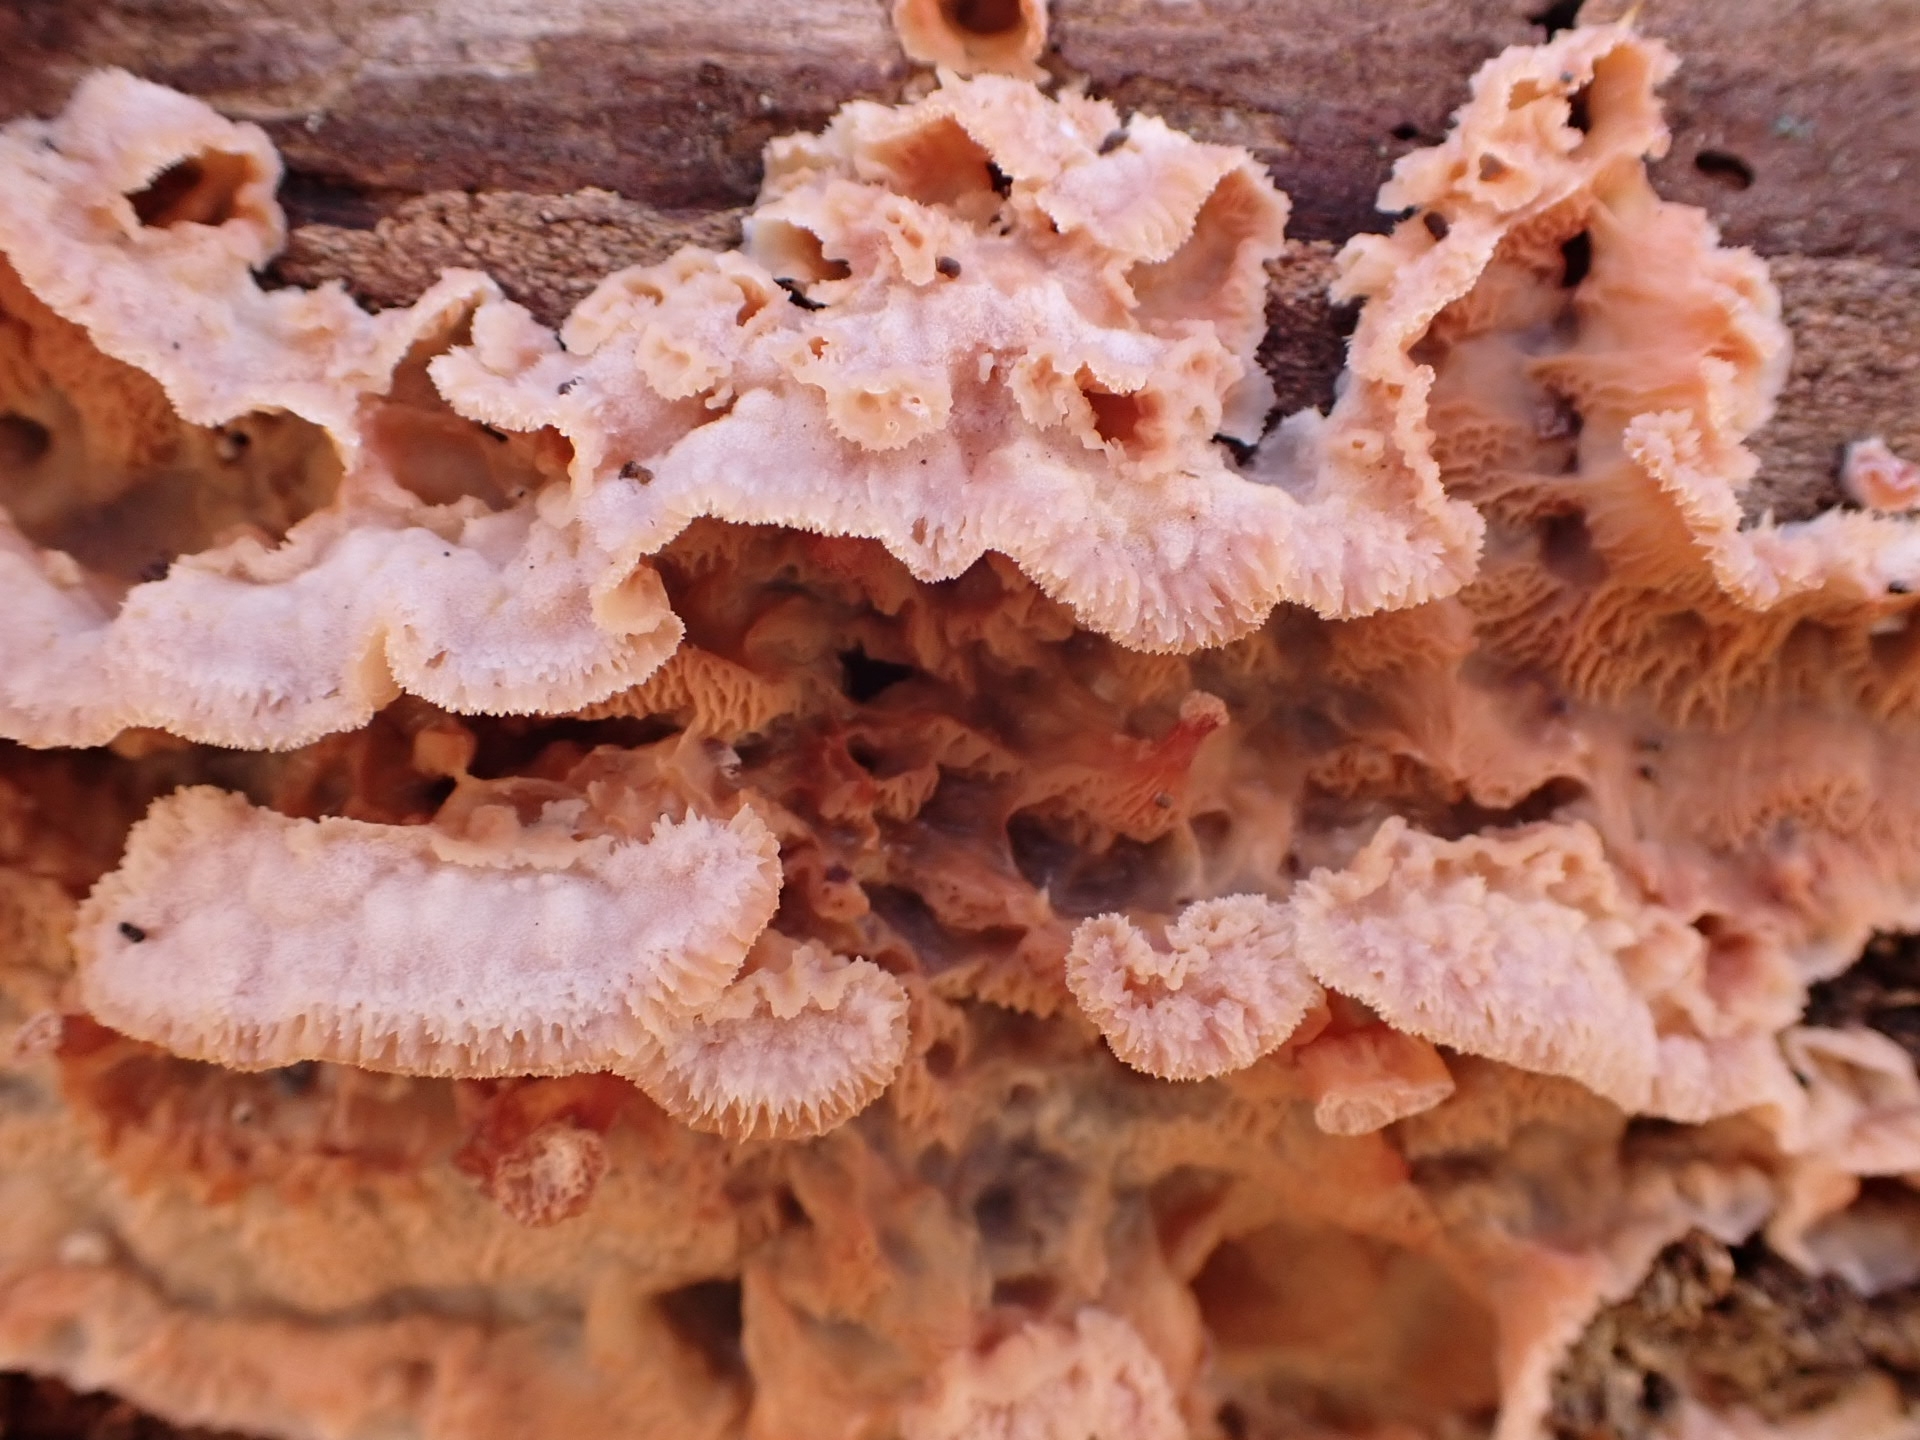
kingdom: Fungi
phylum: Basidiomycota
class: Agaricomycetes
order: Polyporales
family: Meruliaceae
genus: Phlebia
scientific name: Phlebia tremellosa
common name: Jelly rot
